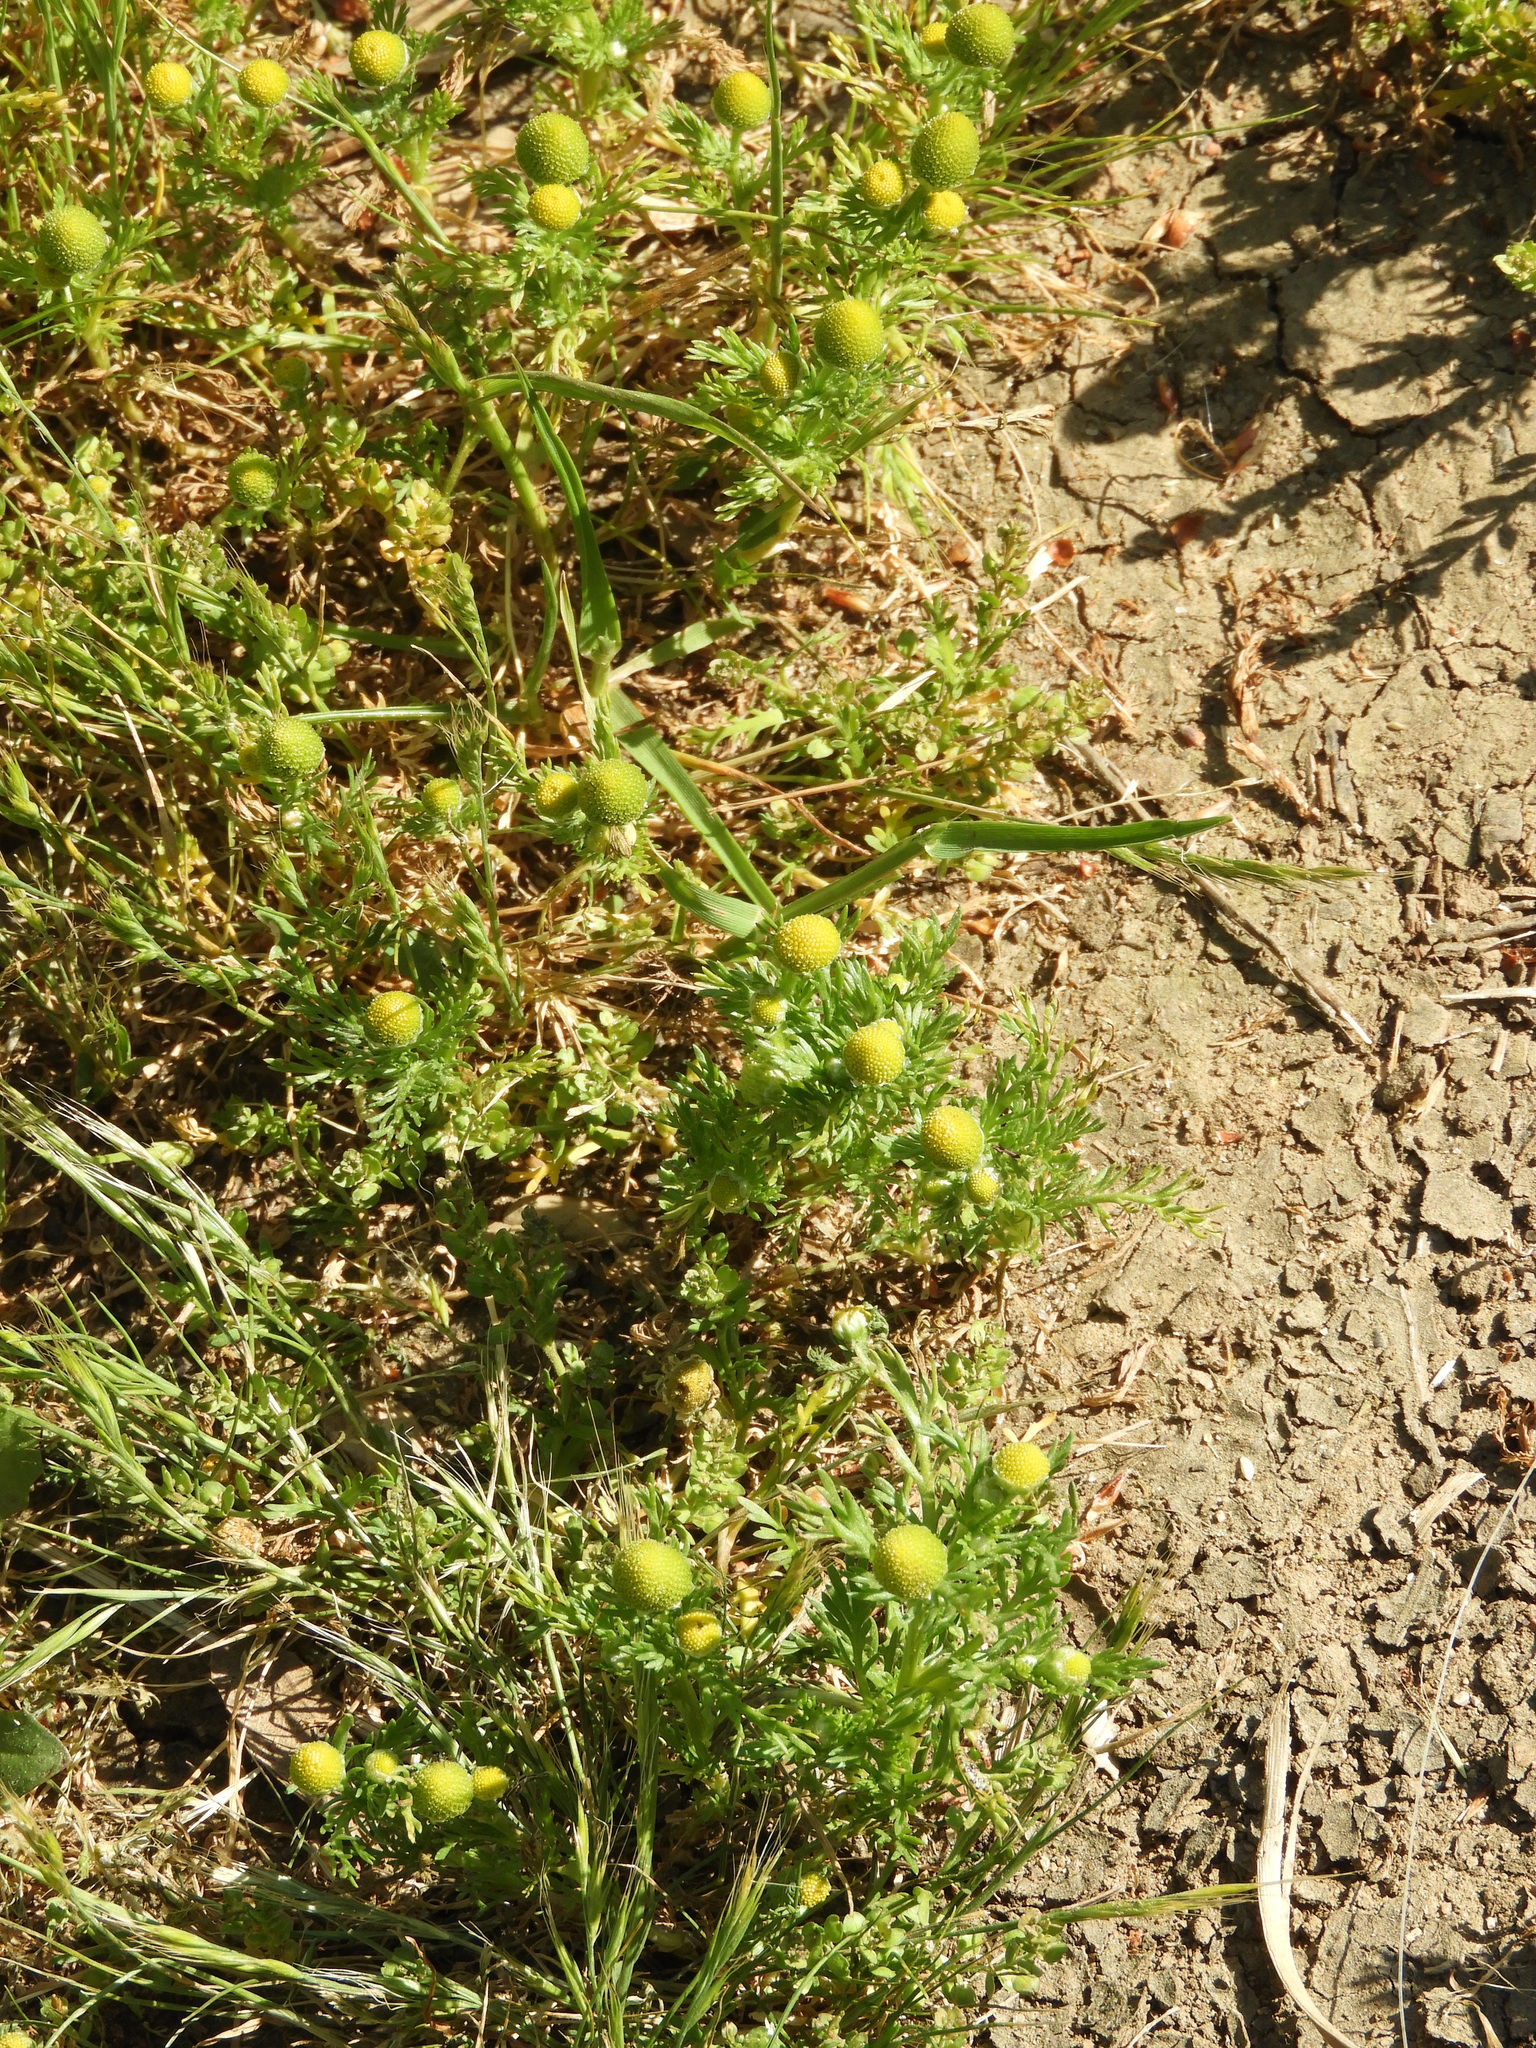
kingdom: Plantae
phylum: Tracheophyta
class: Magnoliopsida
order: Asterales
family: Asteraceae
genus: Matricaria
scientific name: Matricaria discoidea
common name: Disc mayweed
